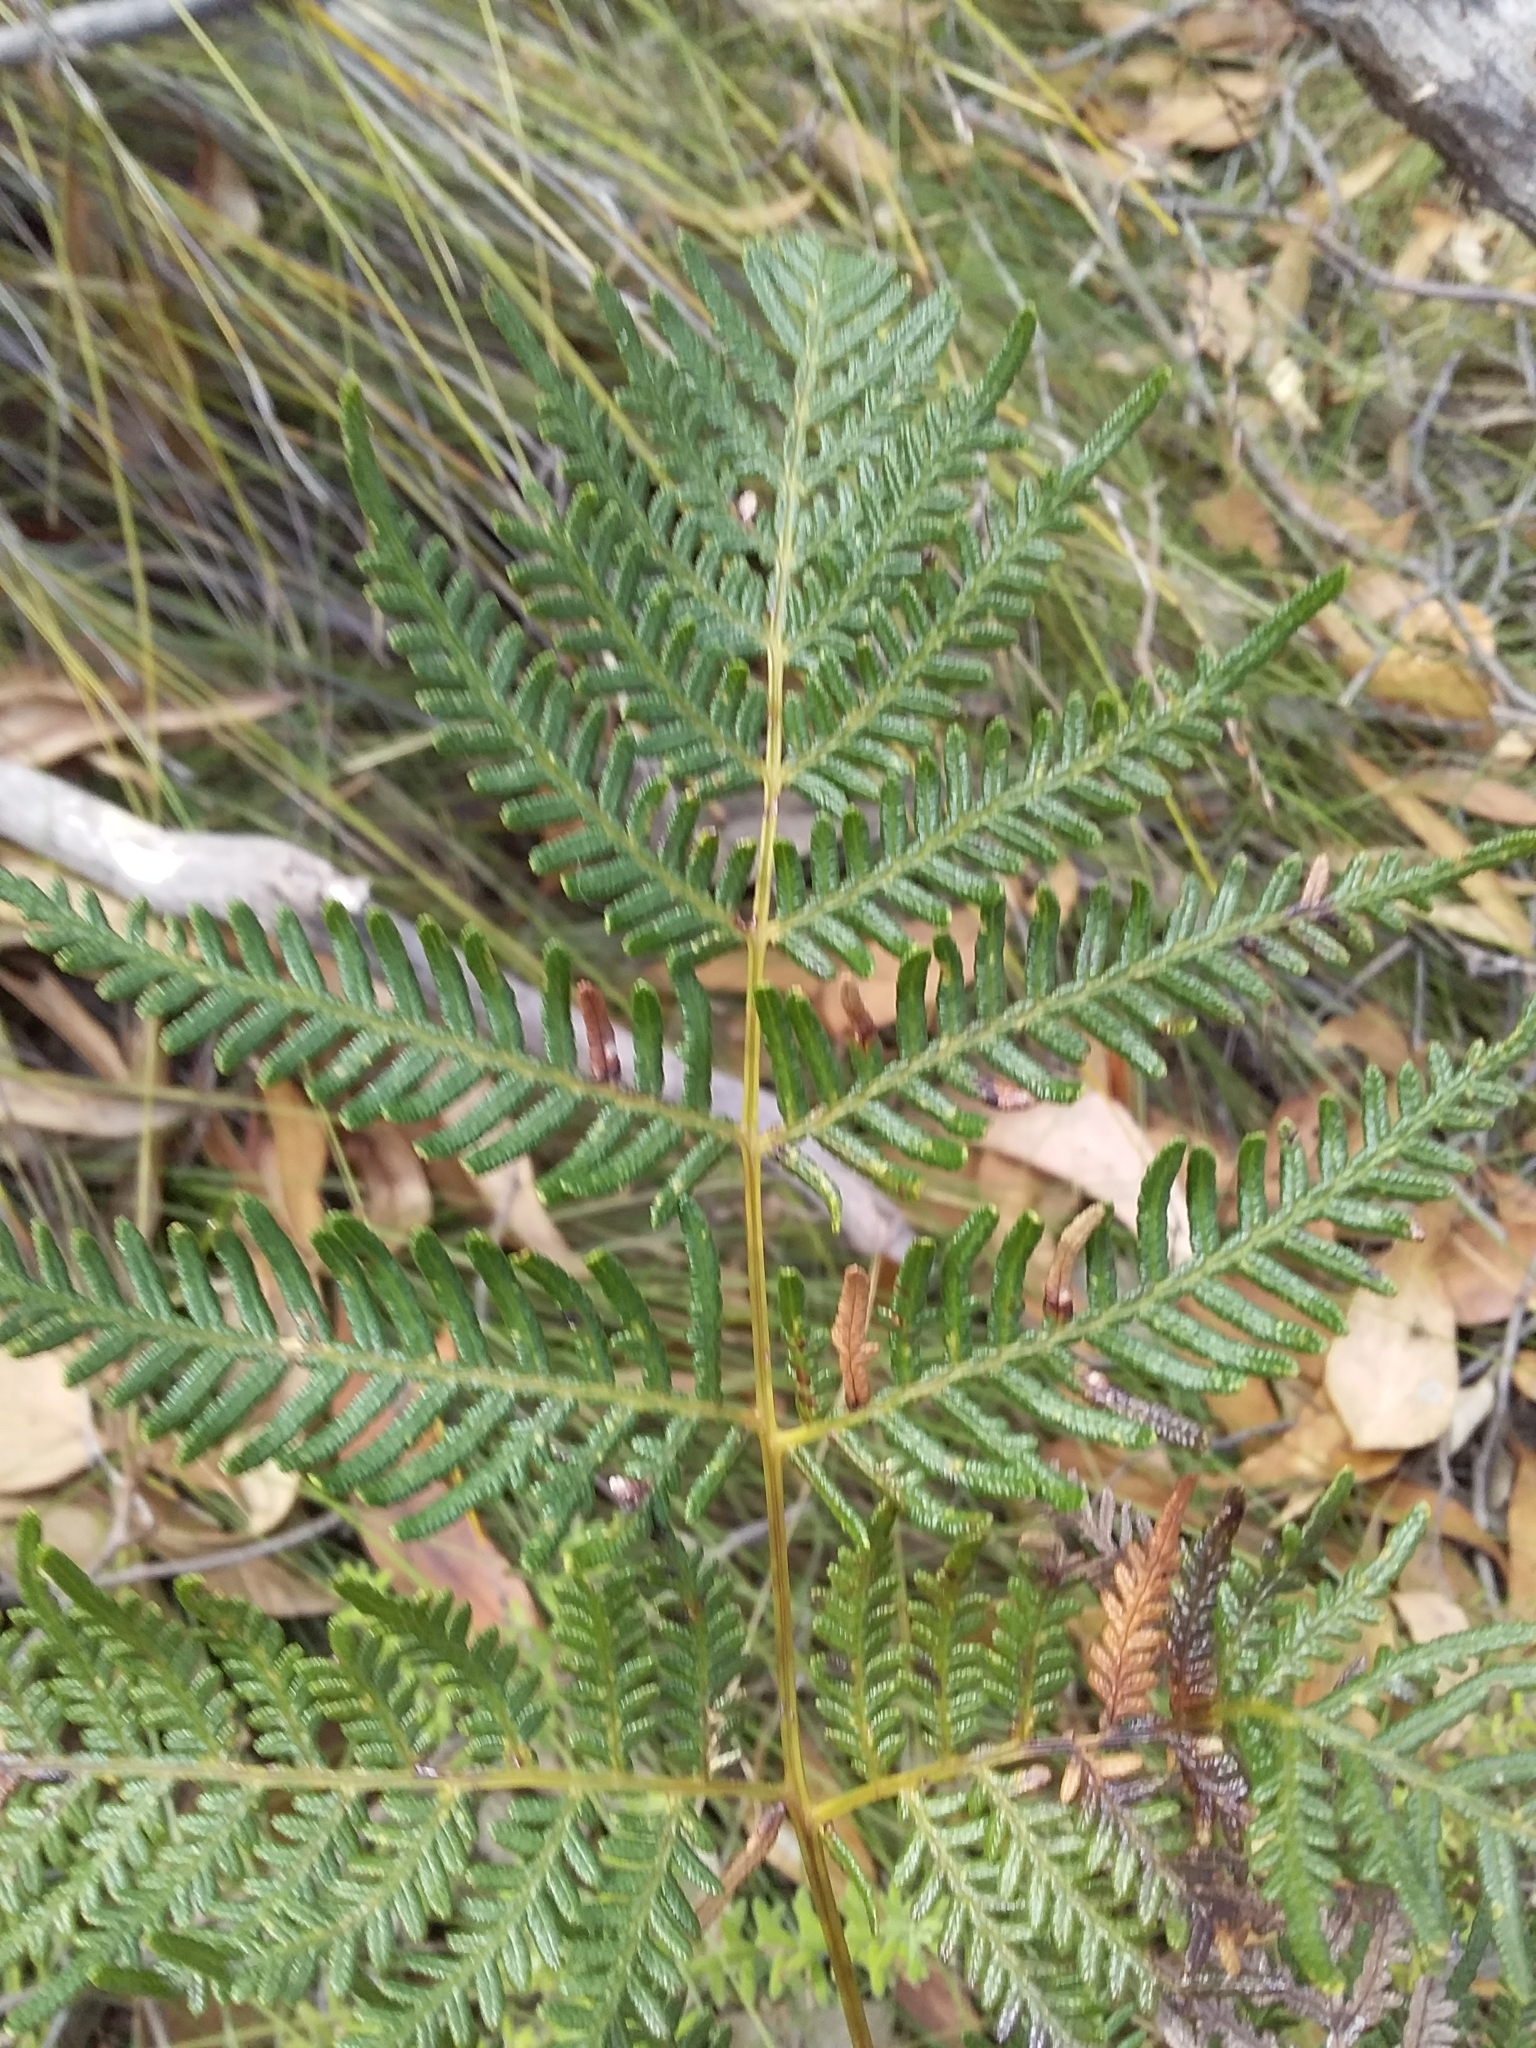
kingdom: Plantae
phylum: Tracheophyta
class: Polypodiopsida
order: Polypodiales
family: Dennstaedtiaceae
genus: Pteridium
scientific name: Pteridium esculentum
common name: Bracken fern
